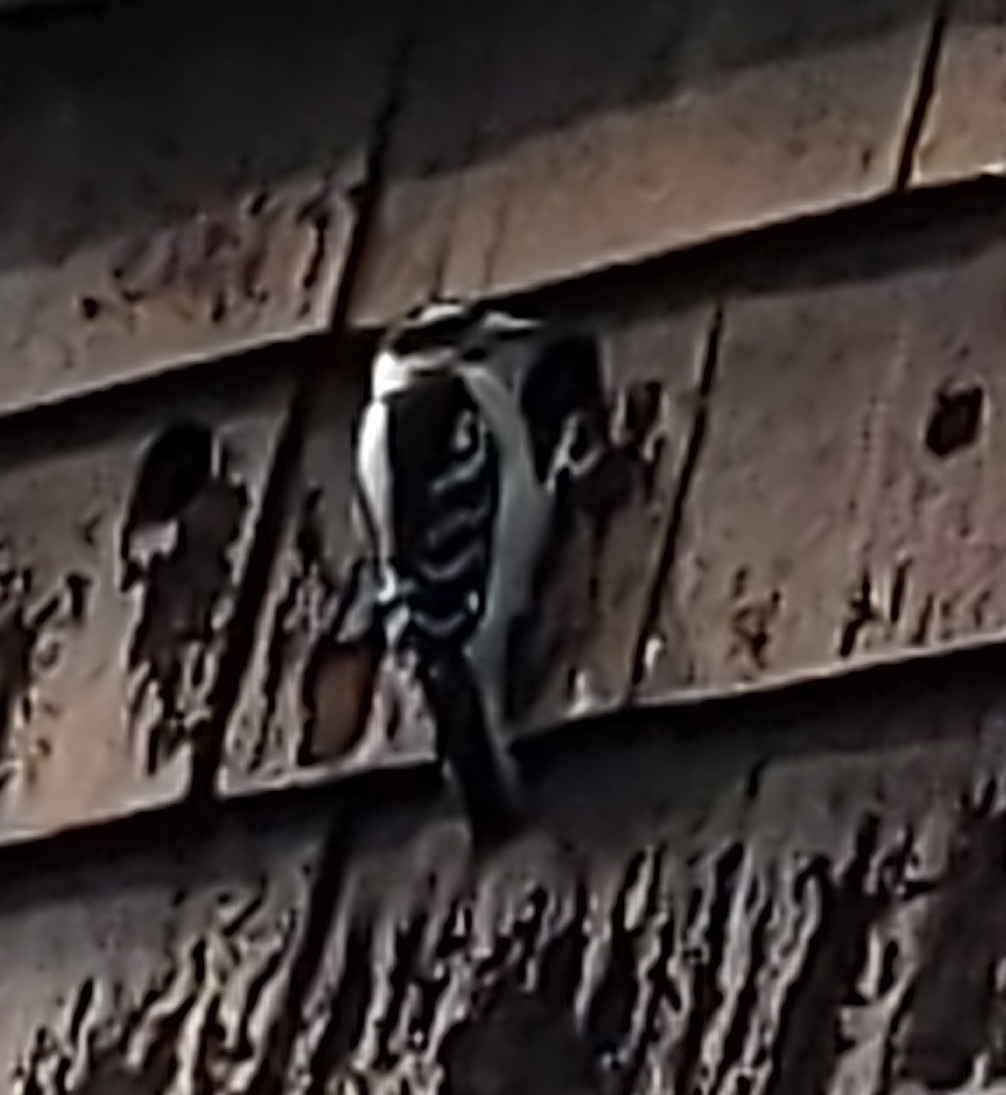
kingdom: Animalia
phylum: Chordata
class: Aves
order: Piciformes
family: Picidae
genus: Dryobates
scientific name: Dryobates pubescens
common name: Downy woodpecker
